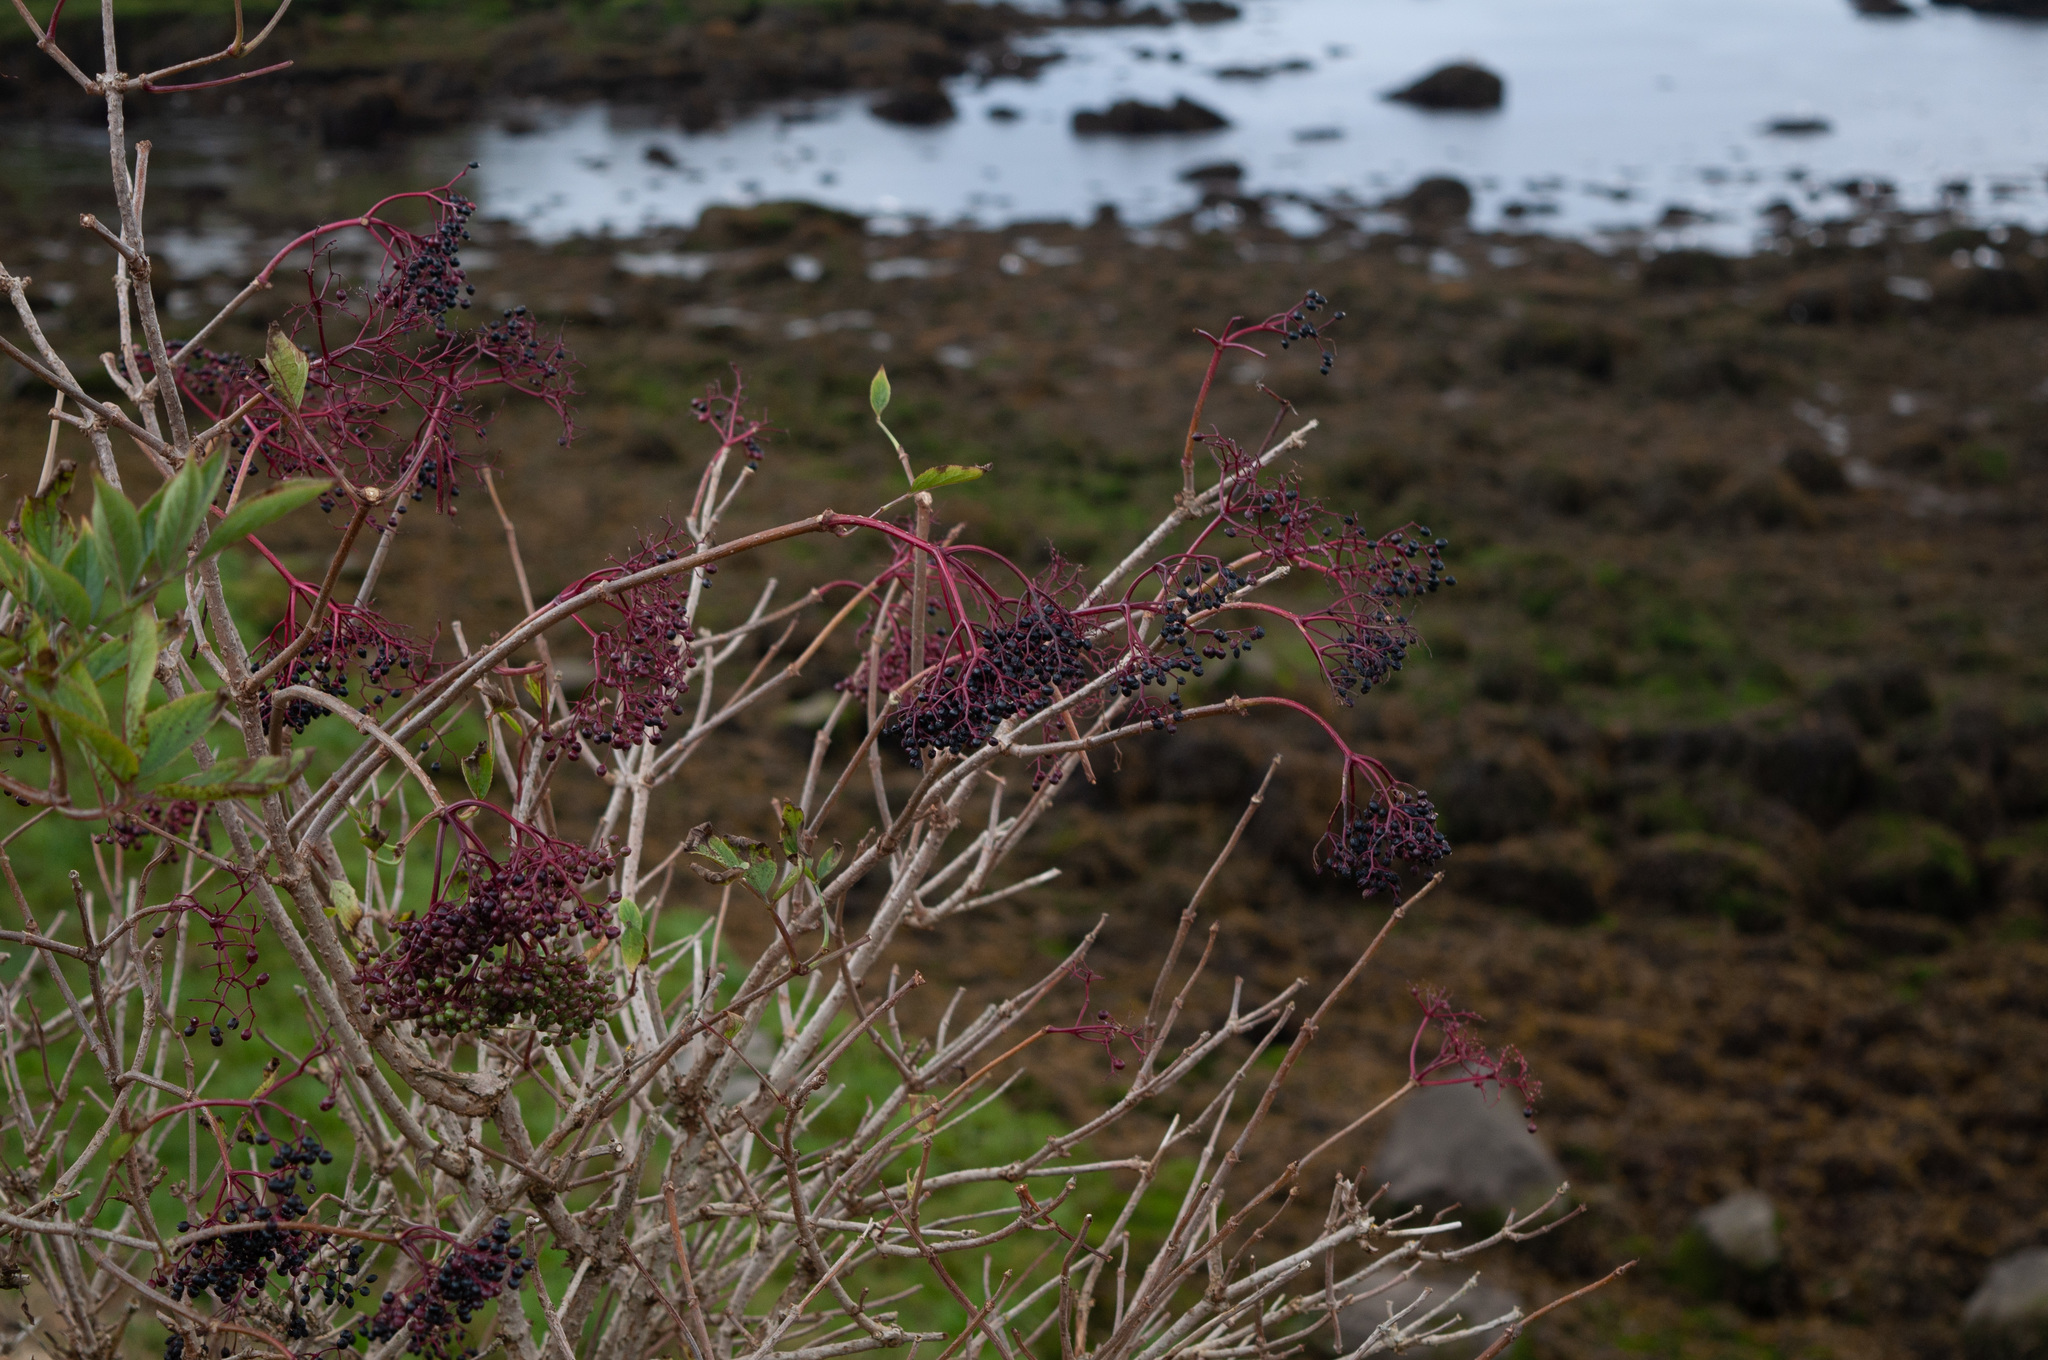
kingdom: Plantae
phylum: Tracheophyta
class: Magnoliopsida
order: Dipsacales
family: Viburnaceae
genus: Sambucus
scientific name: Sambucus nigra
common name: Elder
